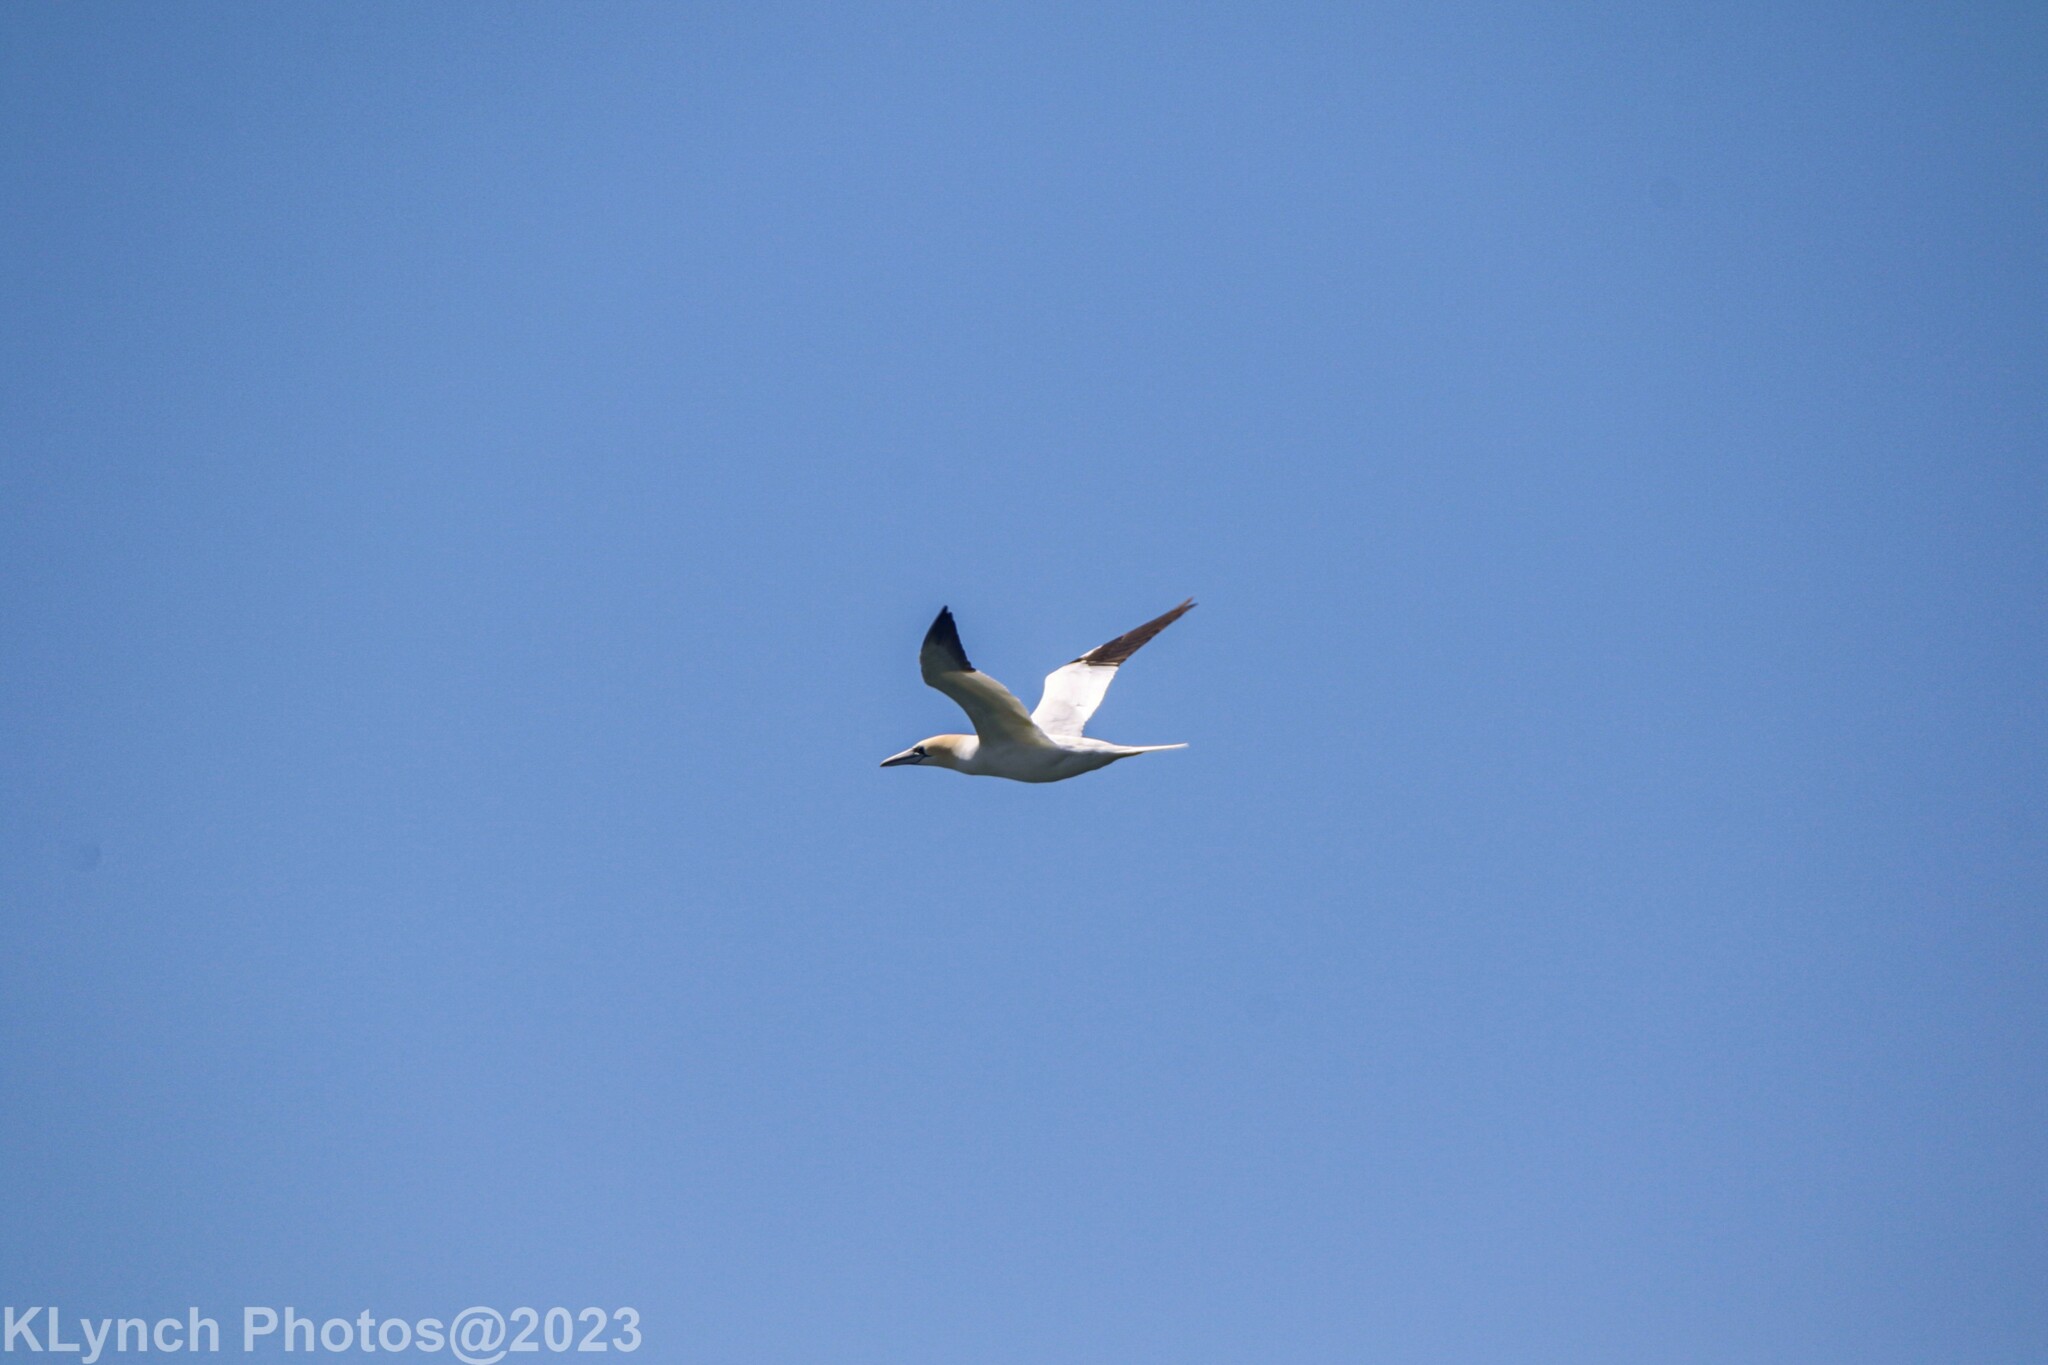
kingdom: Animalia
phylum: Chordata
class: Aves
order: Suliformes
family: Sulidae
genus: Morus
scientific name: Morus bassanus
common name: Northern gannet
